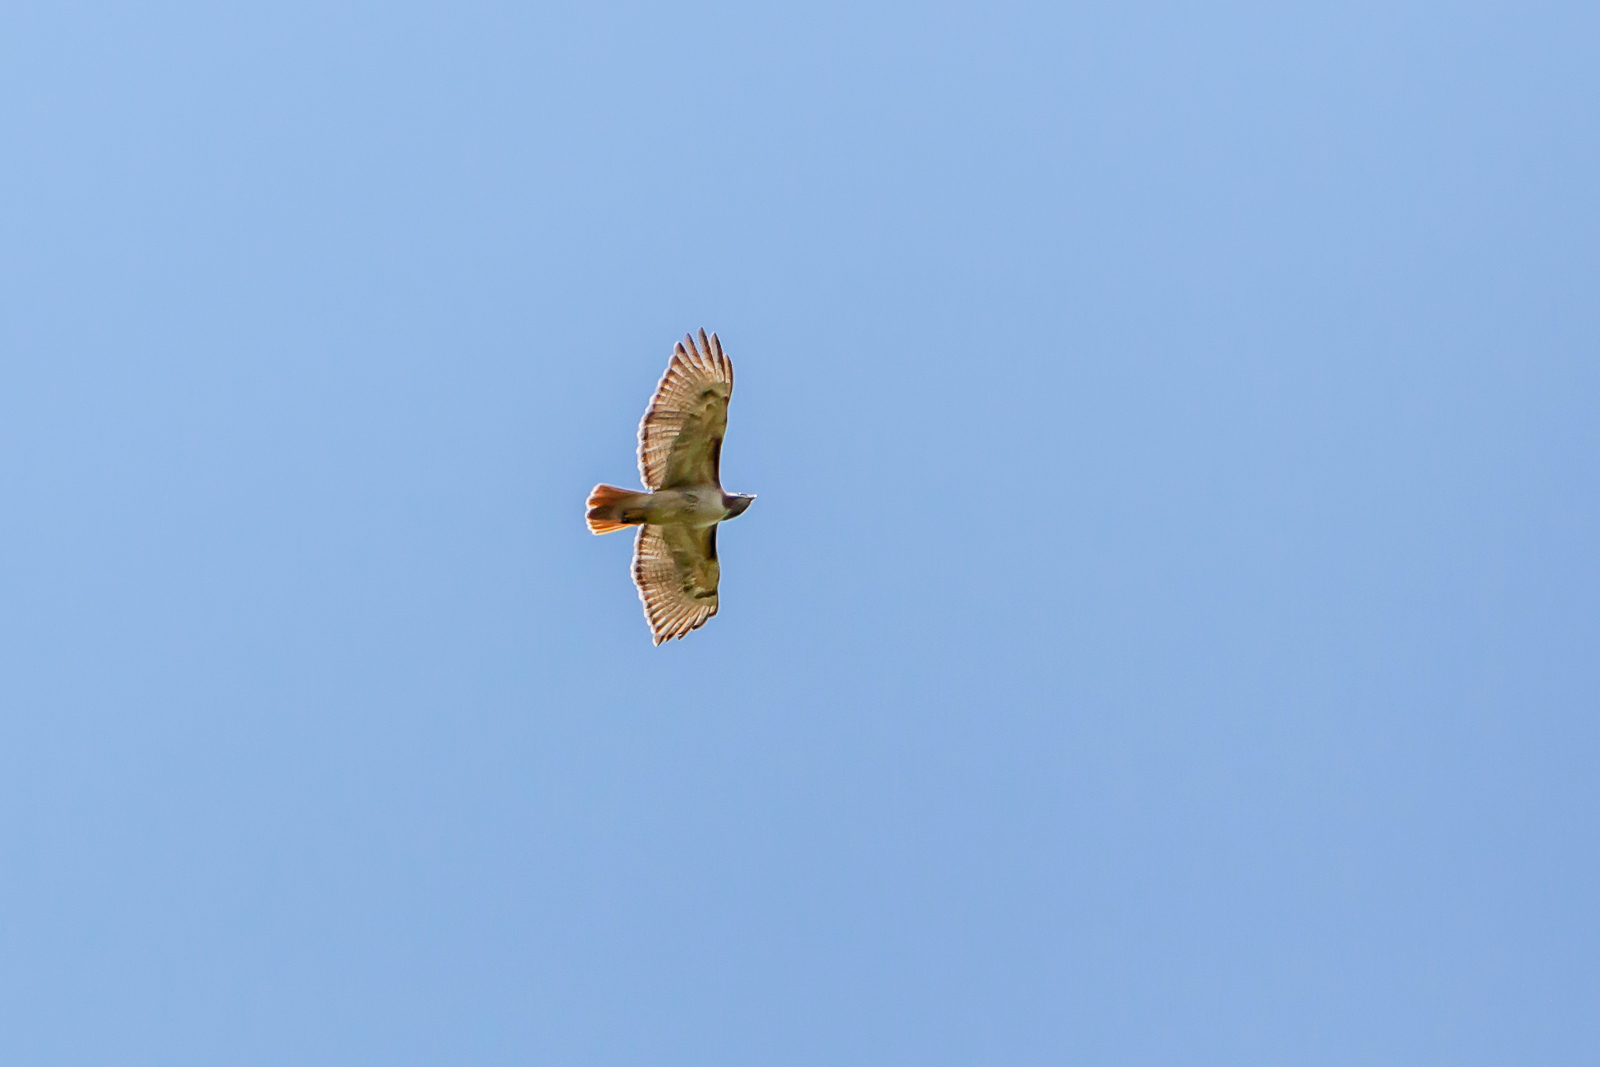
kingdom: Animalia
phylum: Chordata
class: Aves
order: Accipitriformes
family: Accipitridae
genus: Buteo
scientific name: Buteo jamaicensis
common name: Red-tailed hawk
